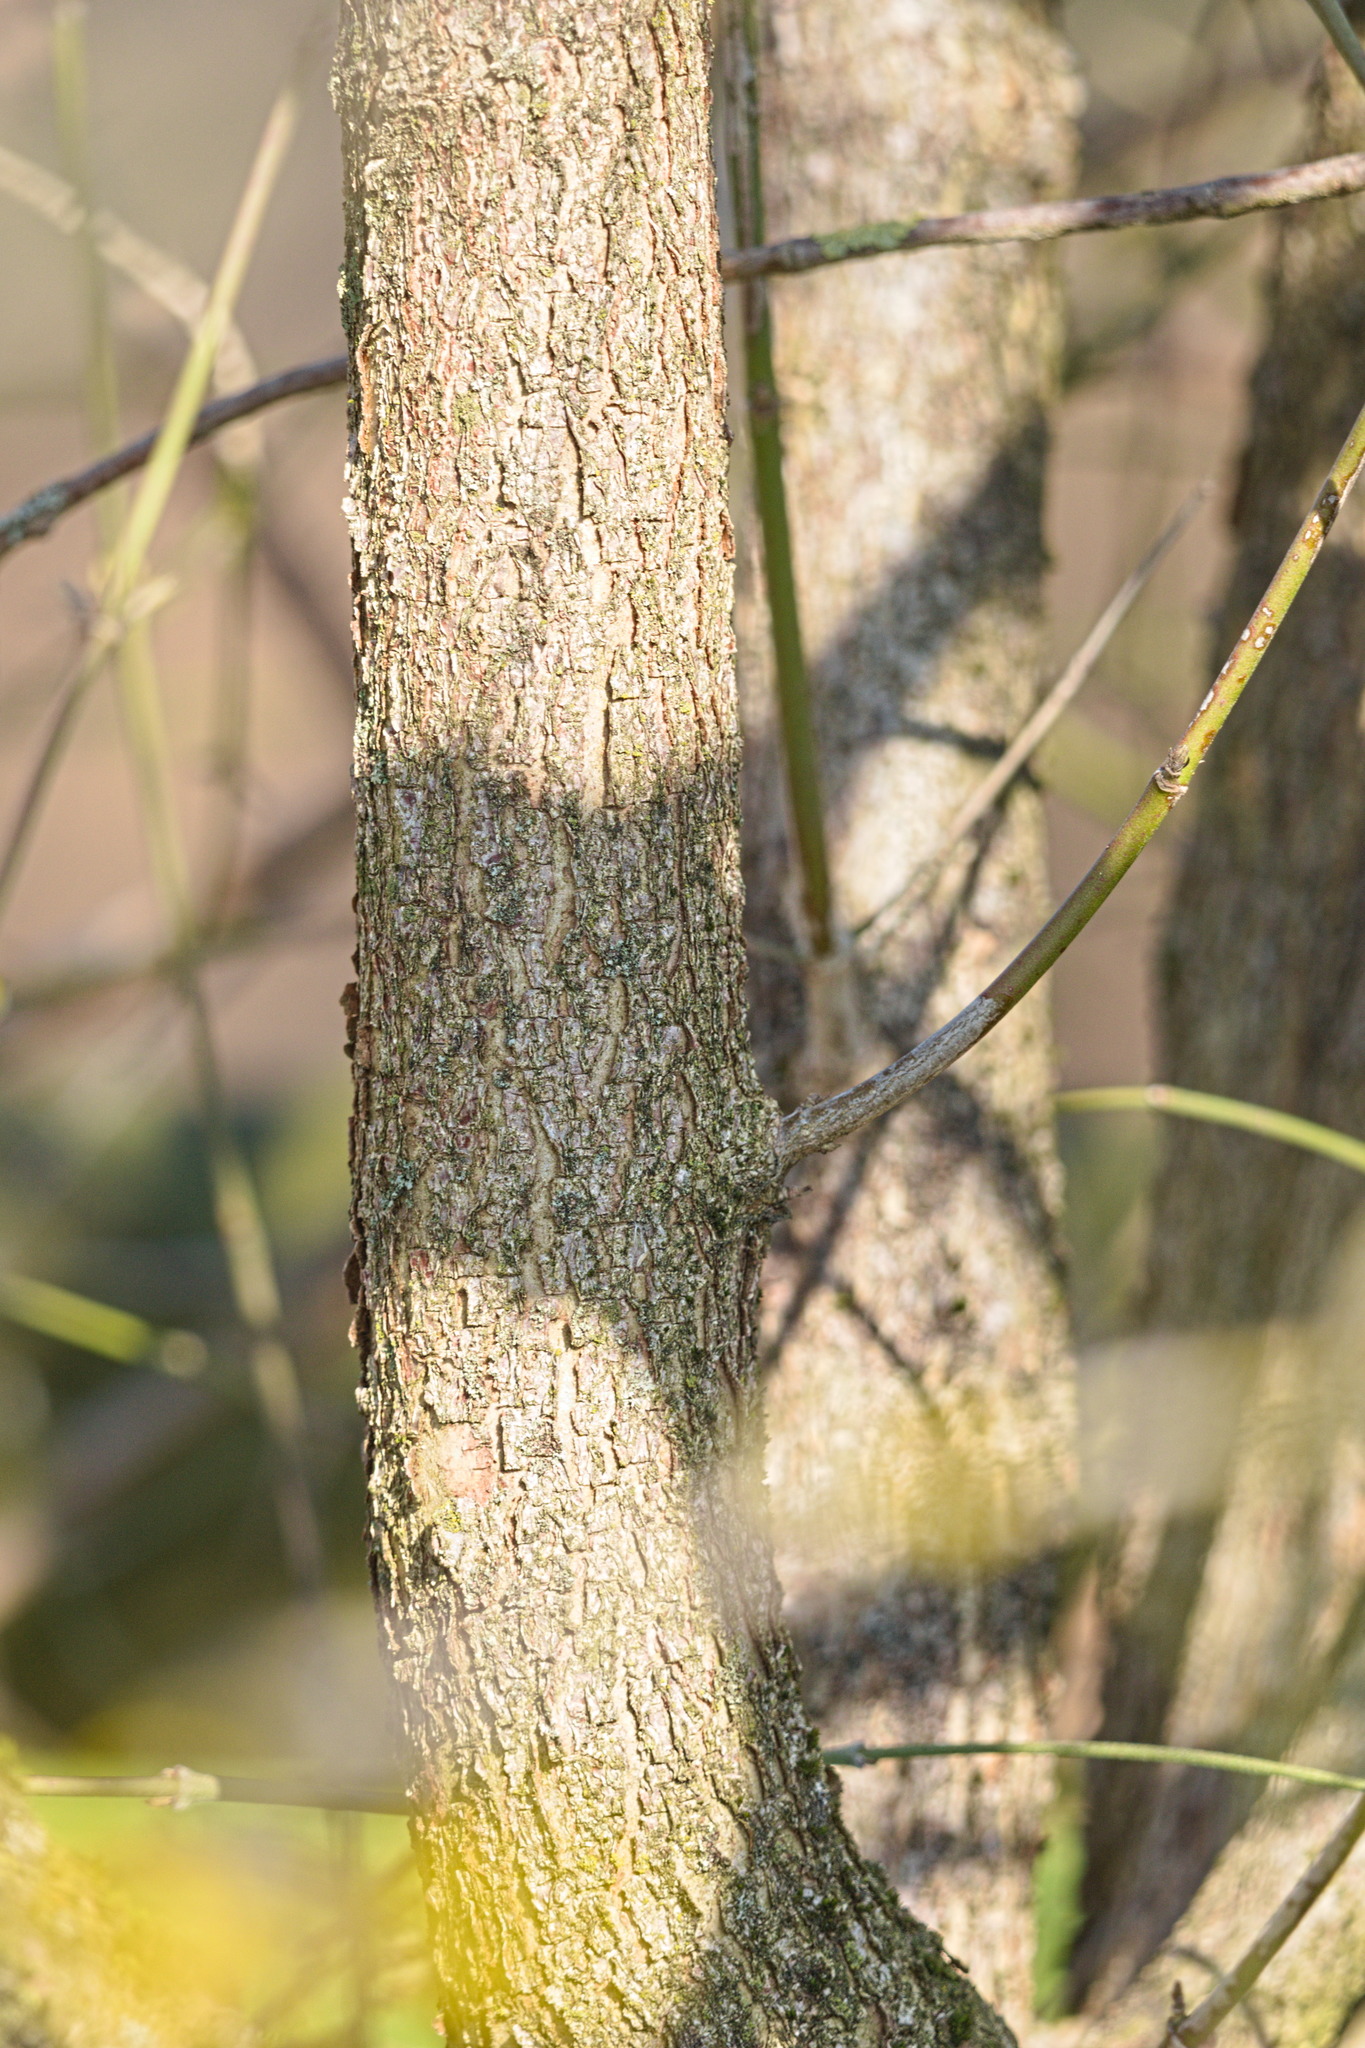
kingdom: Plantae
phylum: Tracheophyta
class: Magnoliopsida
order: Cornales
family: Cornaceae
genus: Cornus
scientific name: Cornus mas
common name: Cornelian-cherry
